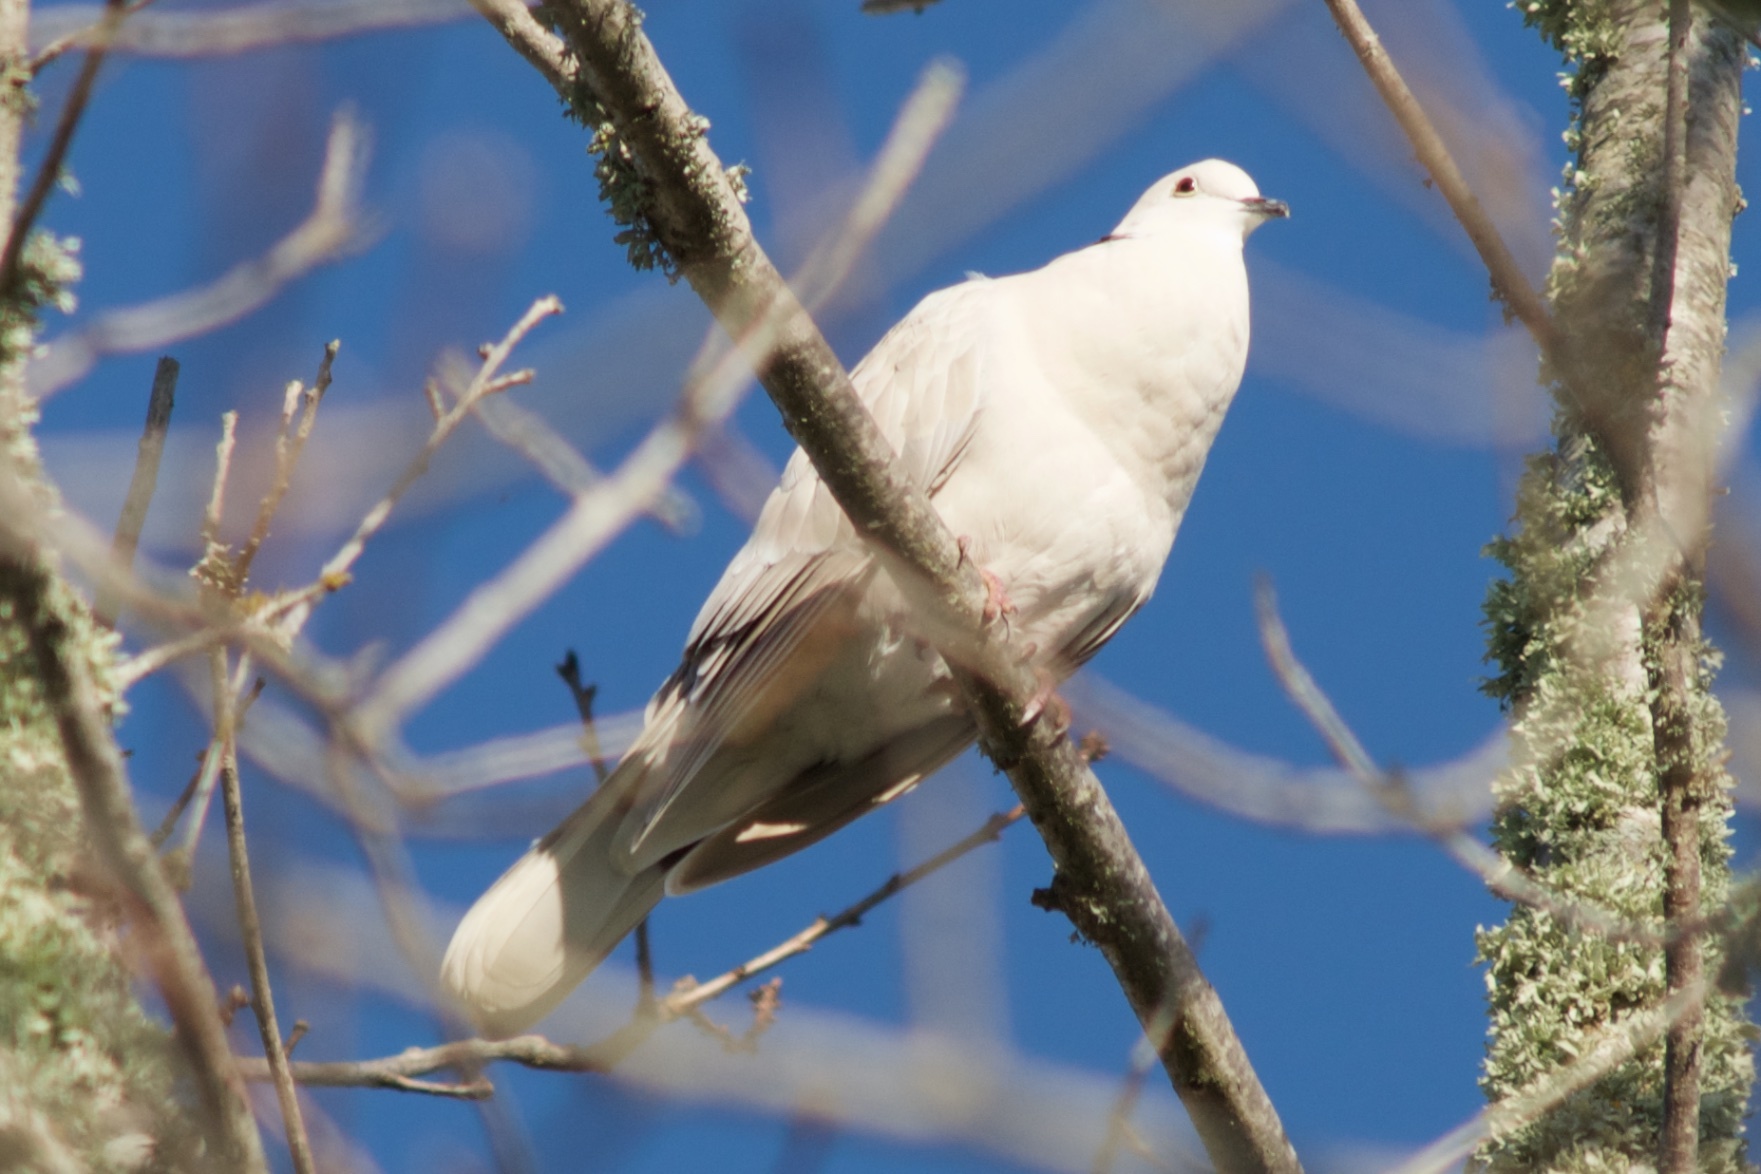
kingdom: Animalia
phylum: Chordata
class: Aves
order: Columbiformes
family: Columbidae
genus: Streptopelia
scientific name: Streptopelia roseogrisea
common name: African collared dove
